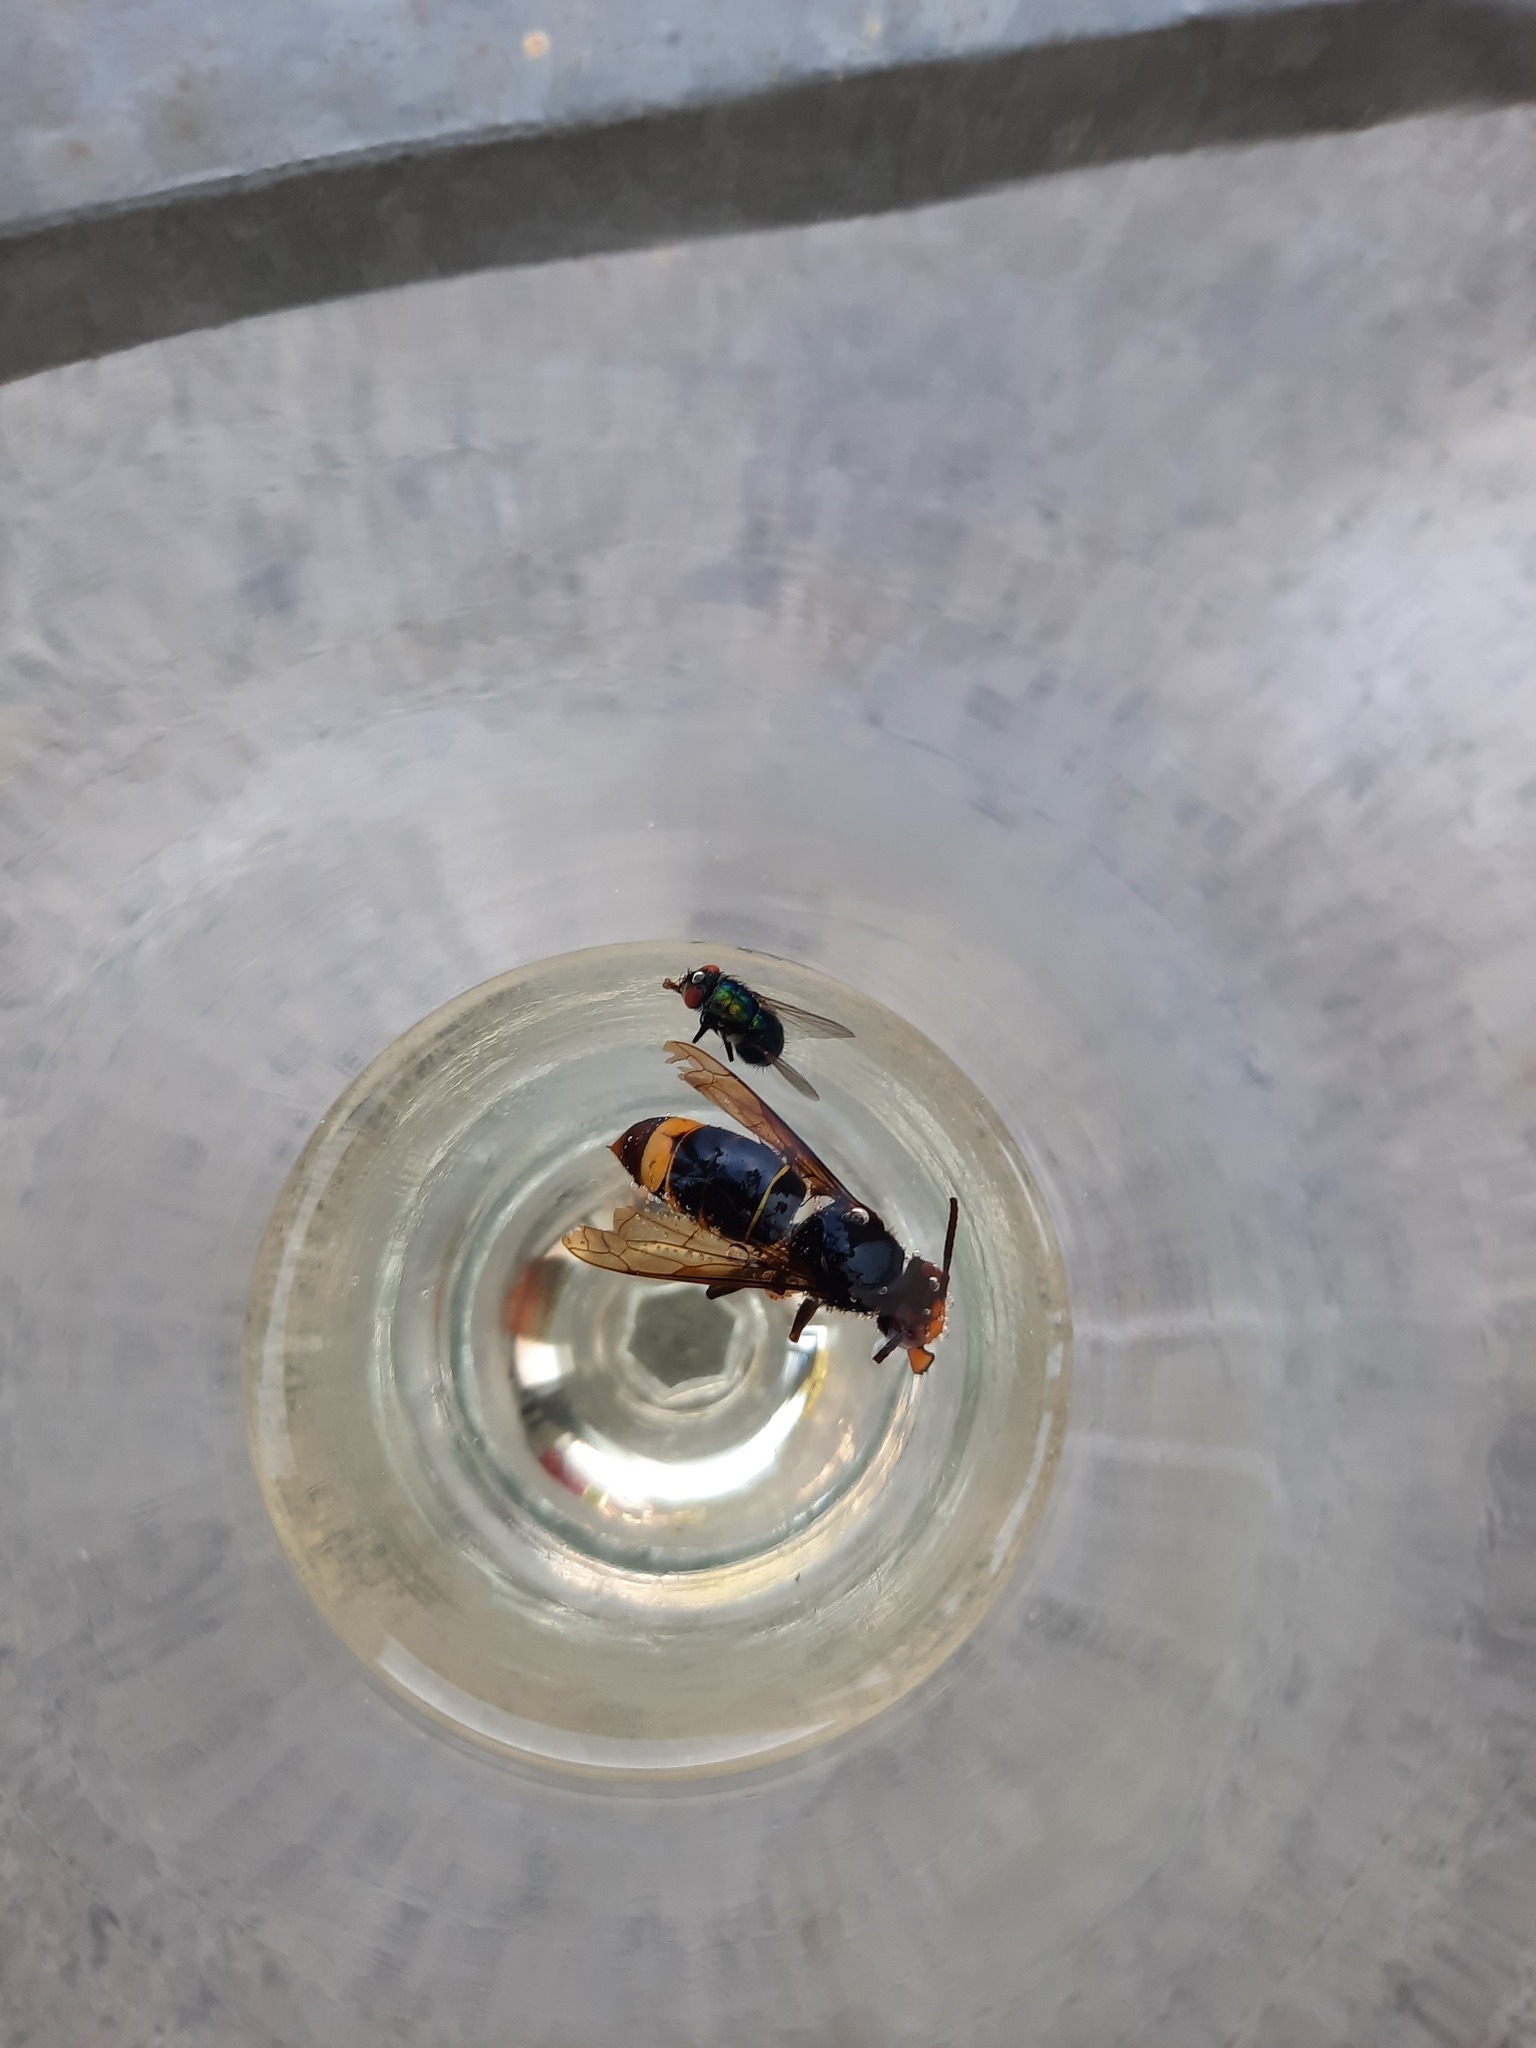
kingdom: Animalia
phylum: Arthropoda
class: Insecta
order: Hymenoptera
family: Vespidae
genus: Vespa
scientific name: Vespa velutina
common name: Asian hornet
